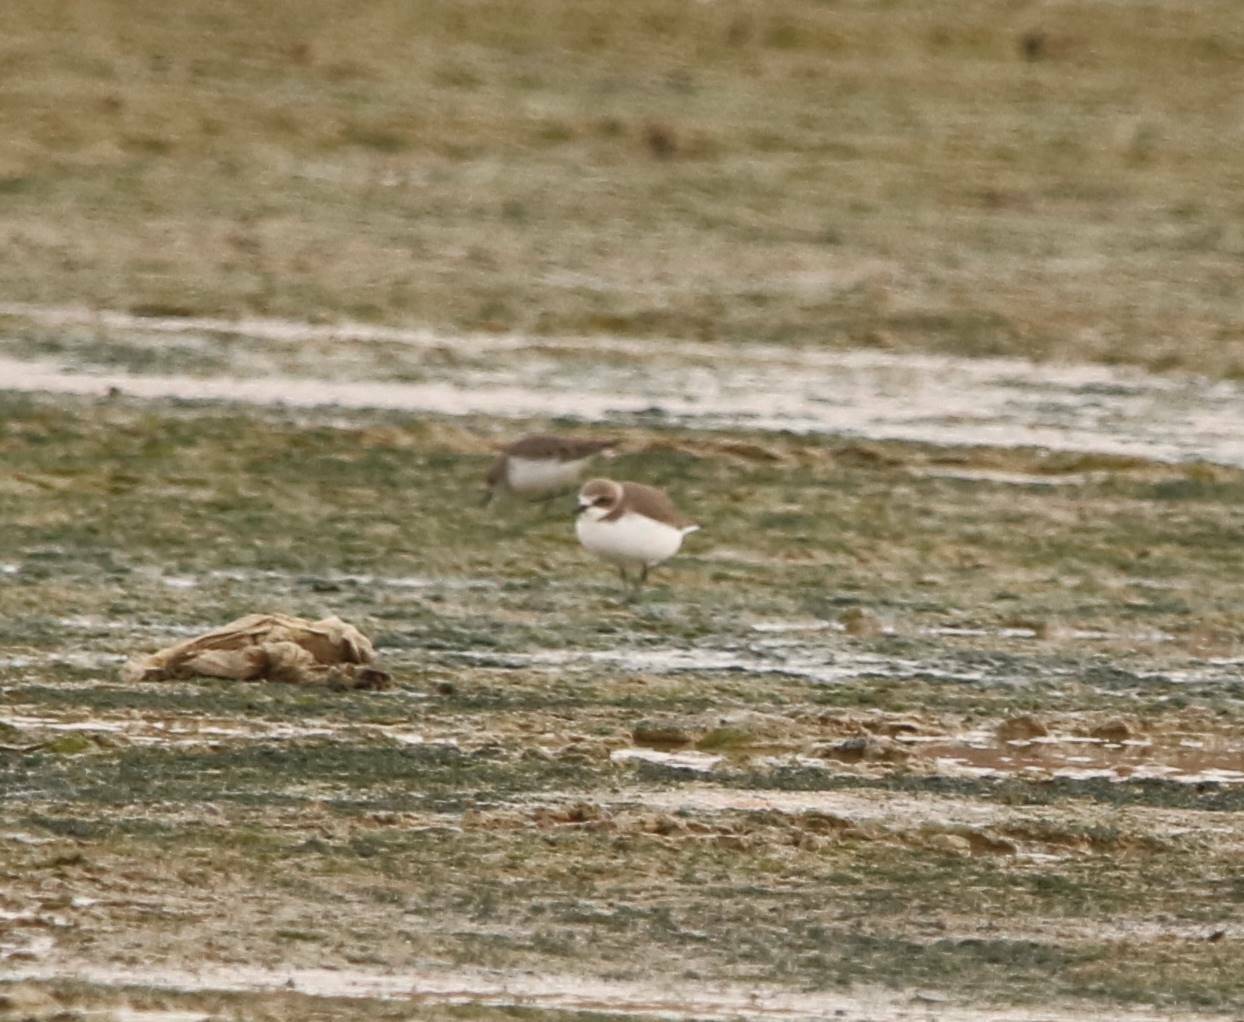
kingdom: Animalia
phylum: Chordata
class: Aves
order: Charadriiformes
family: Charadriidae
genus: Charadrius
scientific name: Charadrius alexandrinus
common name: Kentish plover
